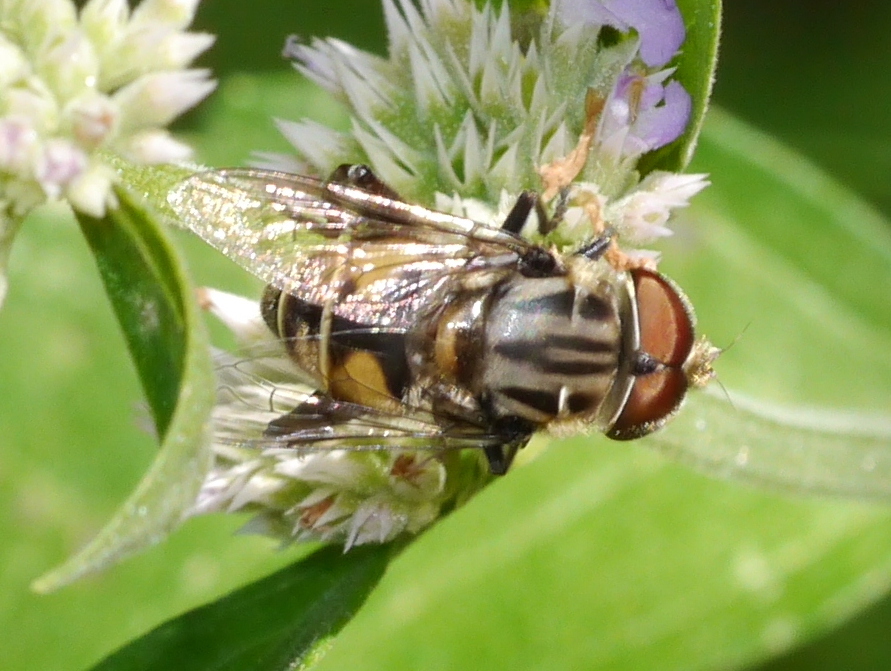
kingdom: Animalia
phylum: Arthropoda
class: Insecta
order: Diptera
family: Syrphidae
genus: Palpada
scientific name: Palpada furcata
